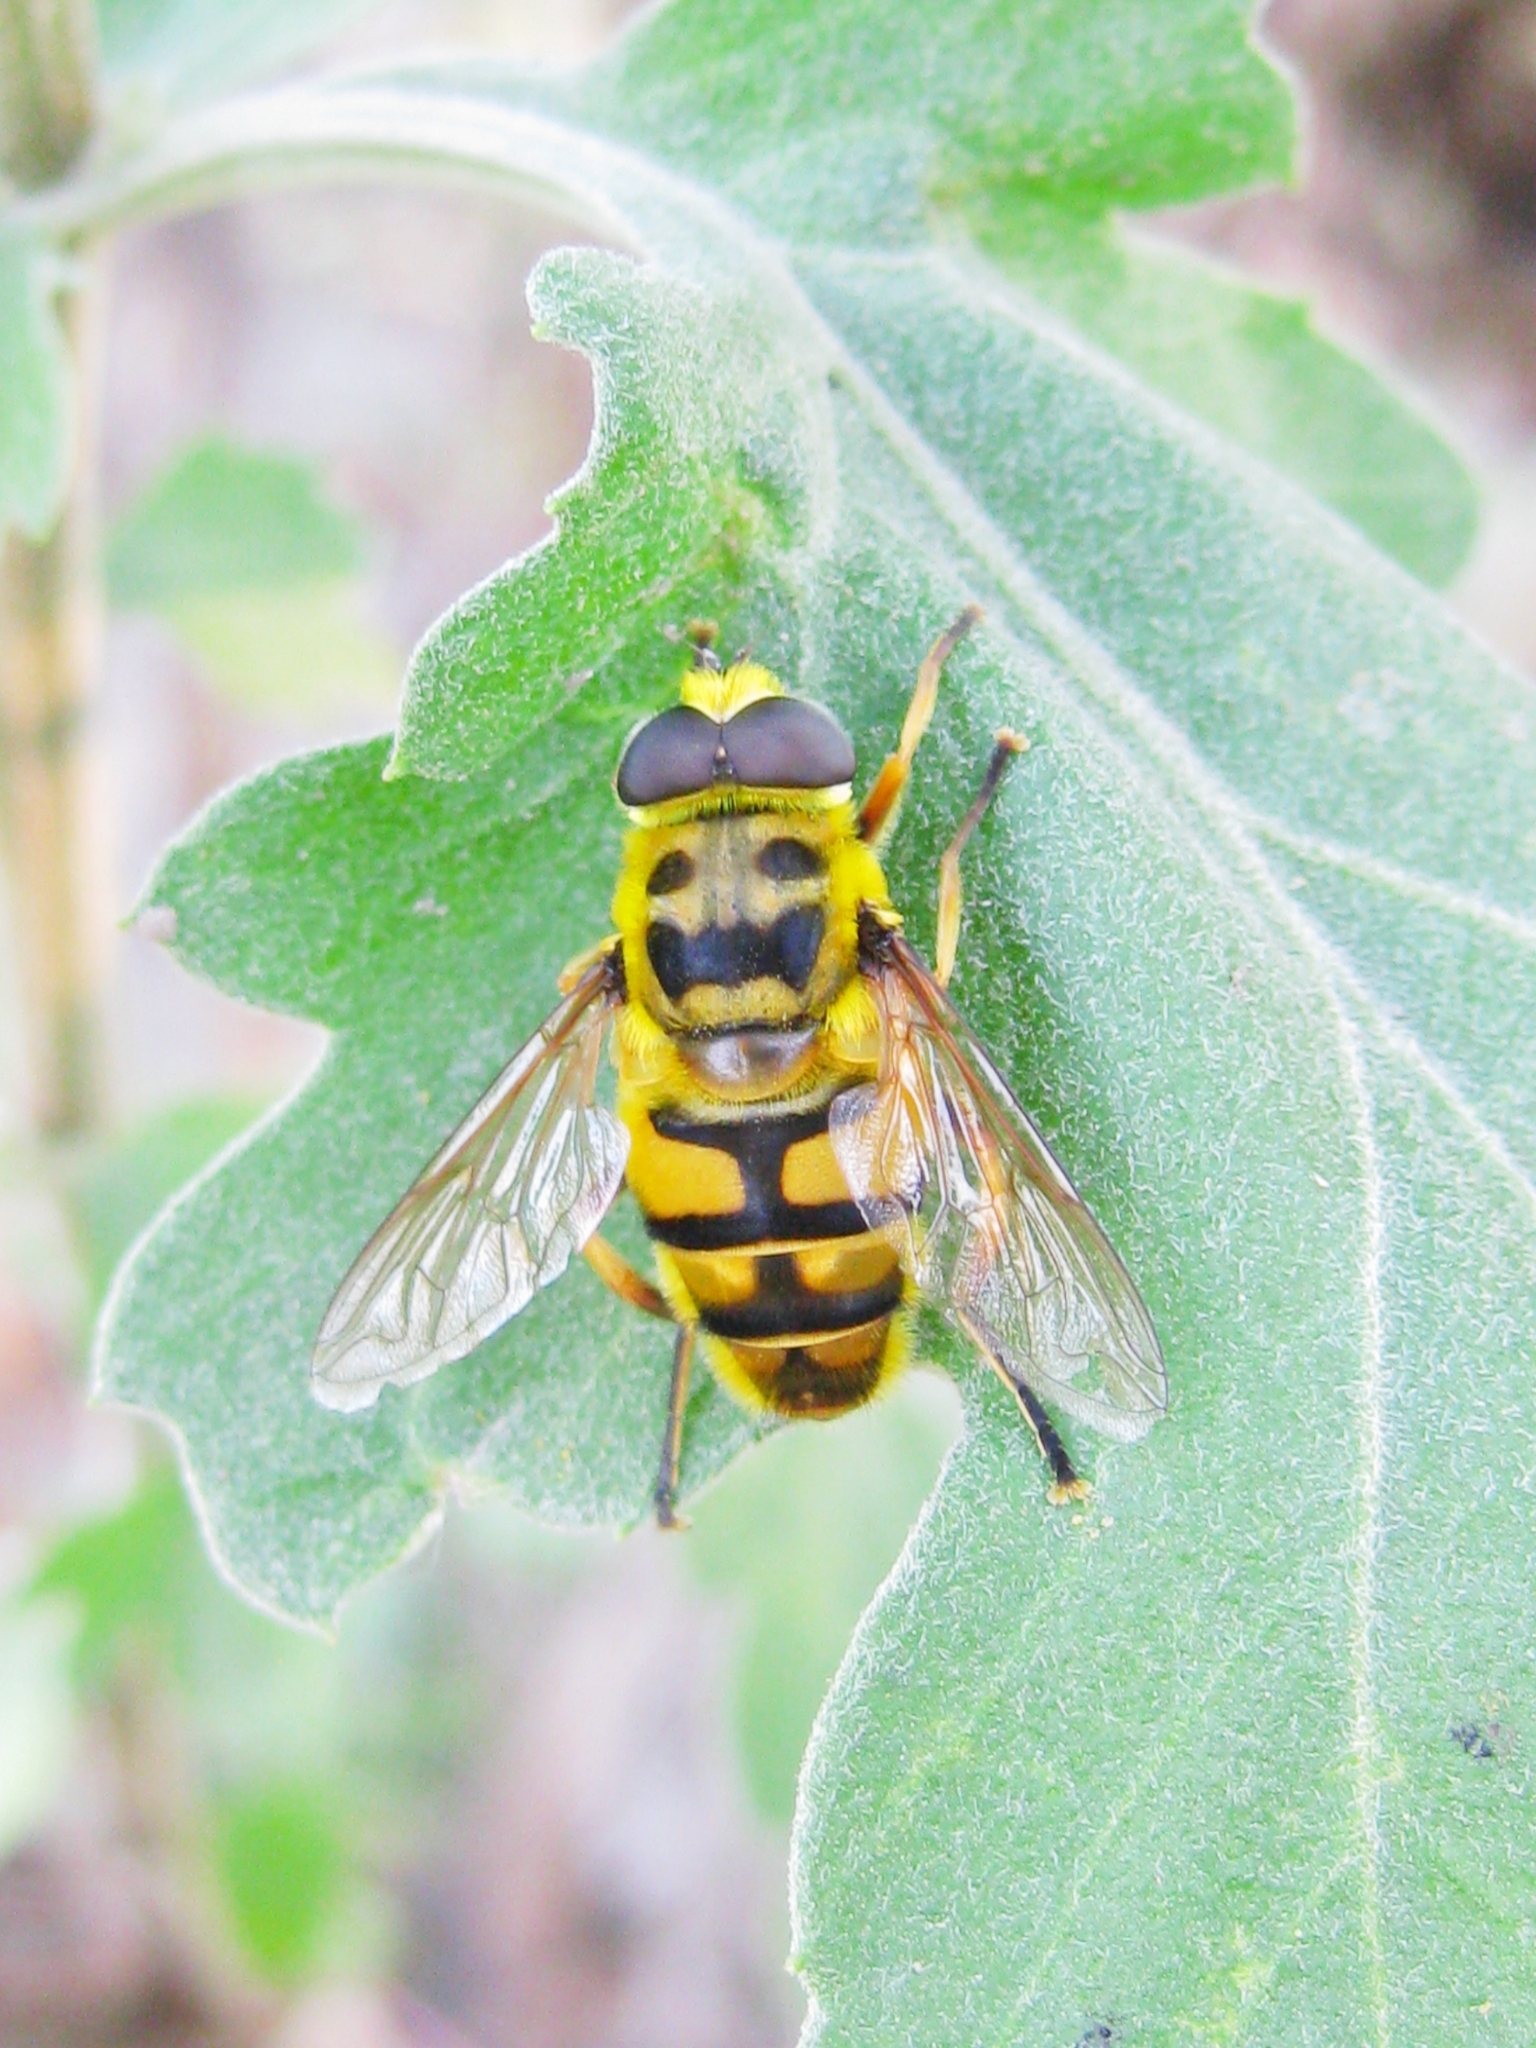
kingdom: Animalia
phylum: Arthropoda
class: Insecta
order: Diptera
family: Syrphidae
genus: Myathropa
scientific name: Myathropa florea
